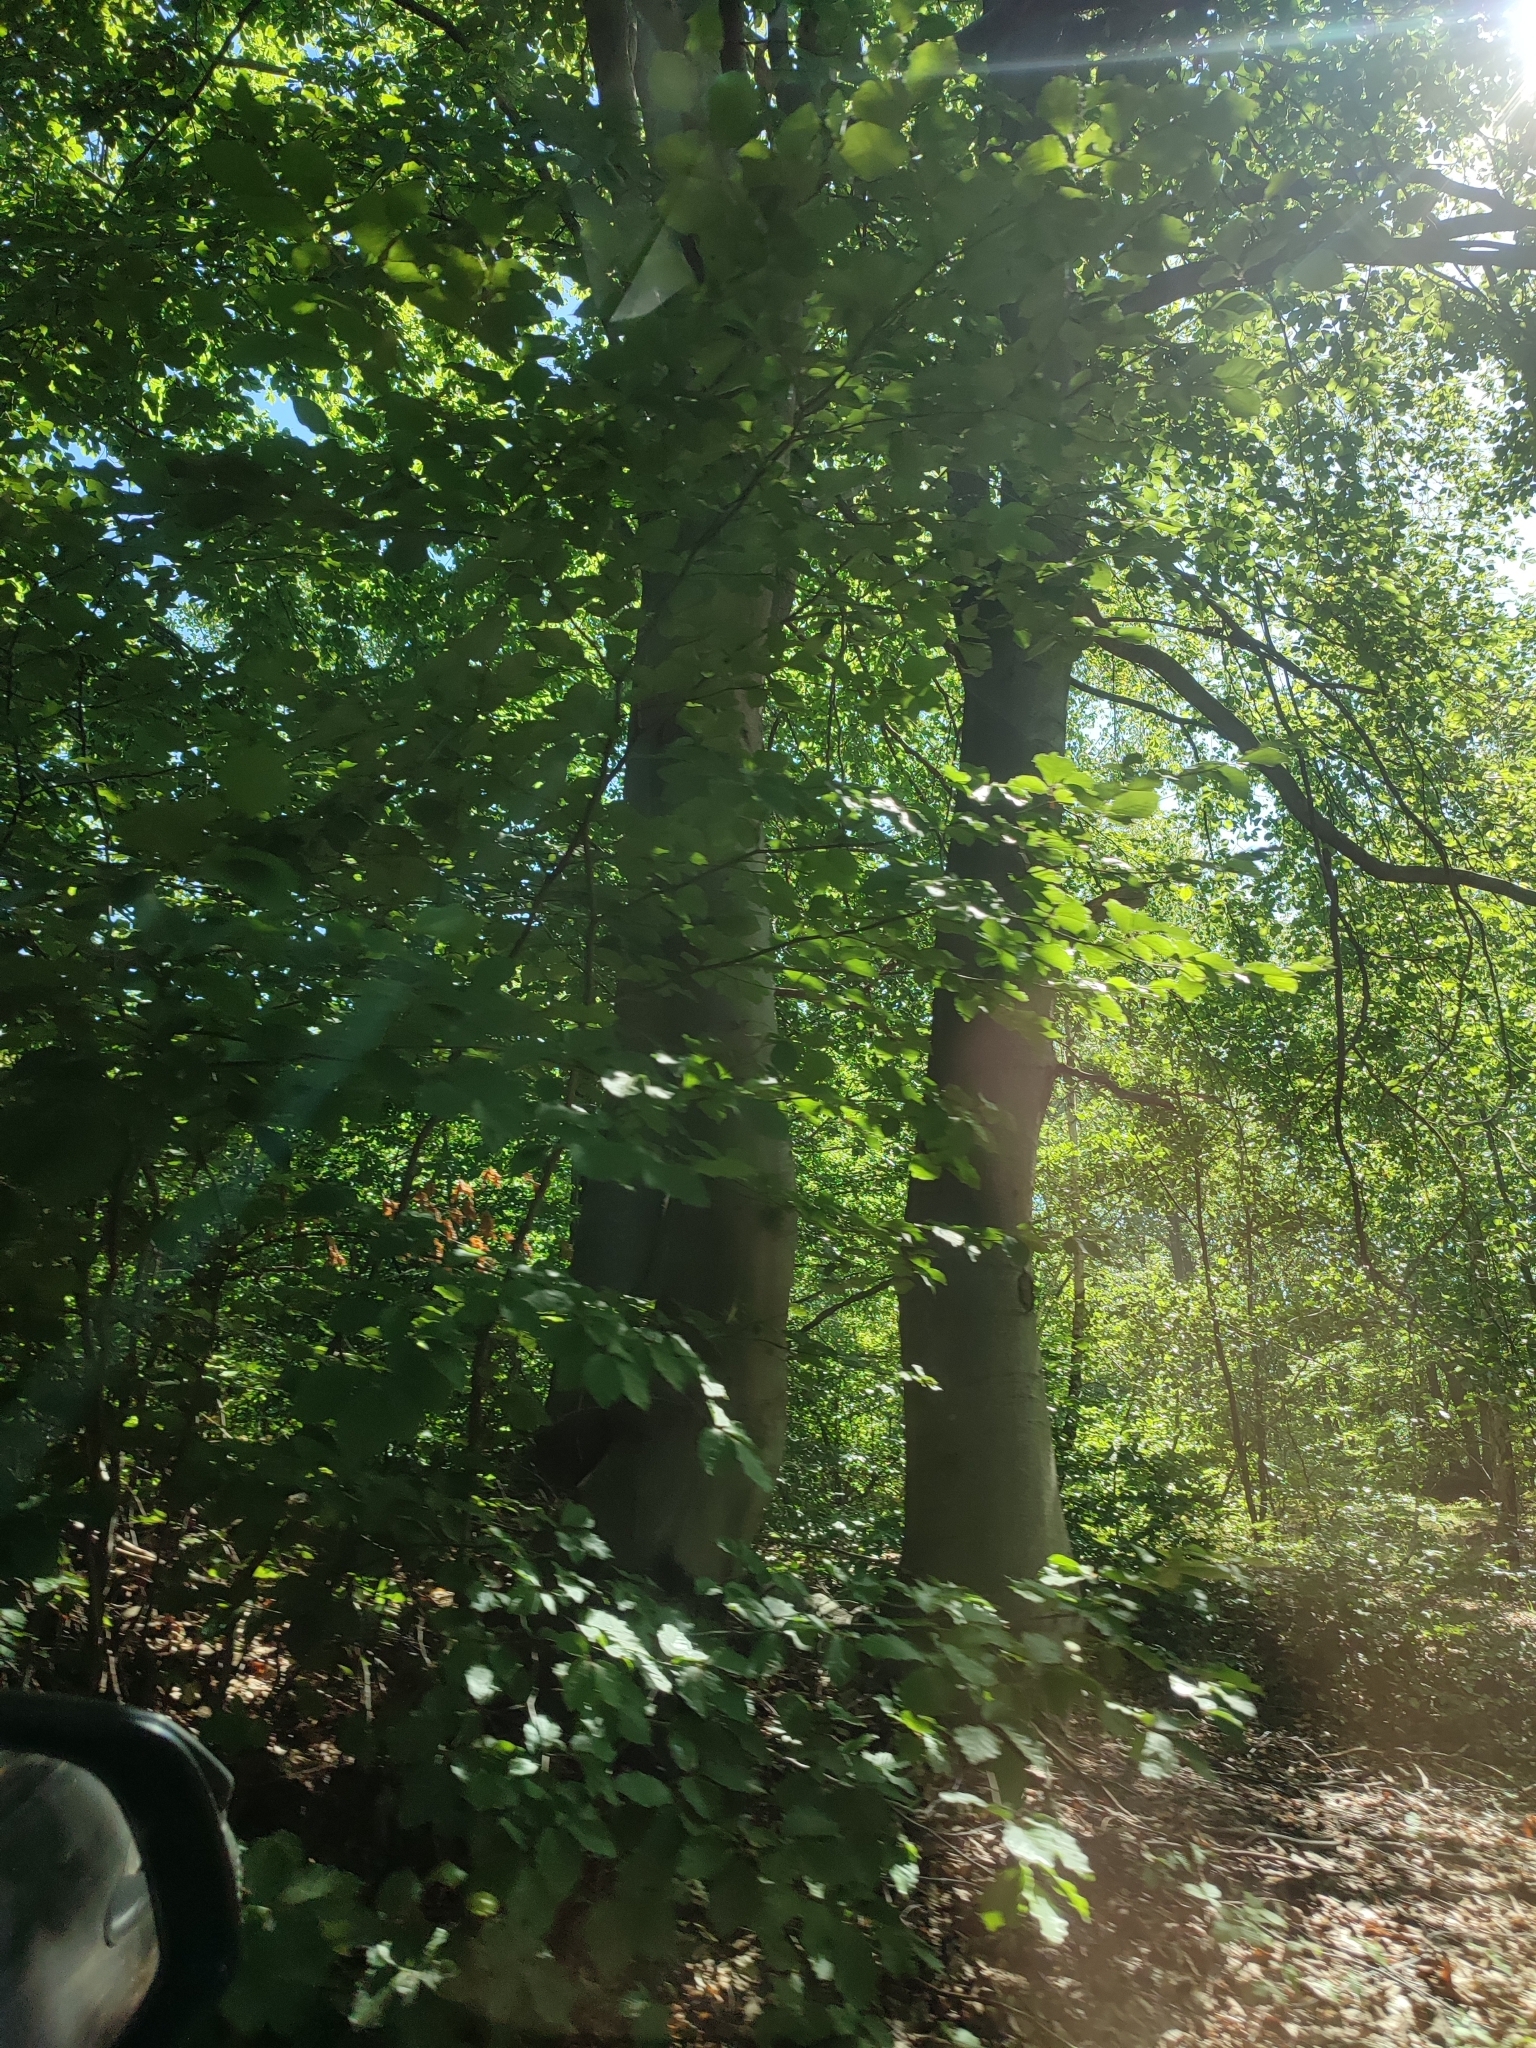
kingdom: Plantae
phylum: Tracheophyta
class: Magnoliopsida
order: Fagales
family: Fagaceae
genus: Fagus
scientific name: Fagus sylvatica
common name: Beech
